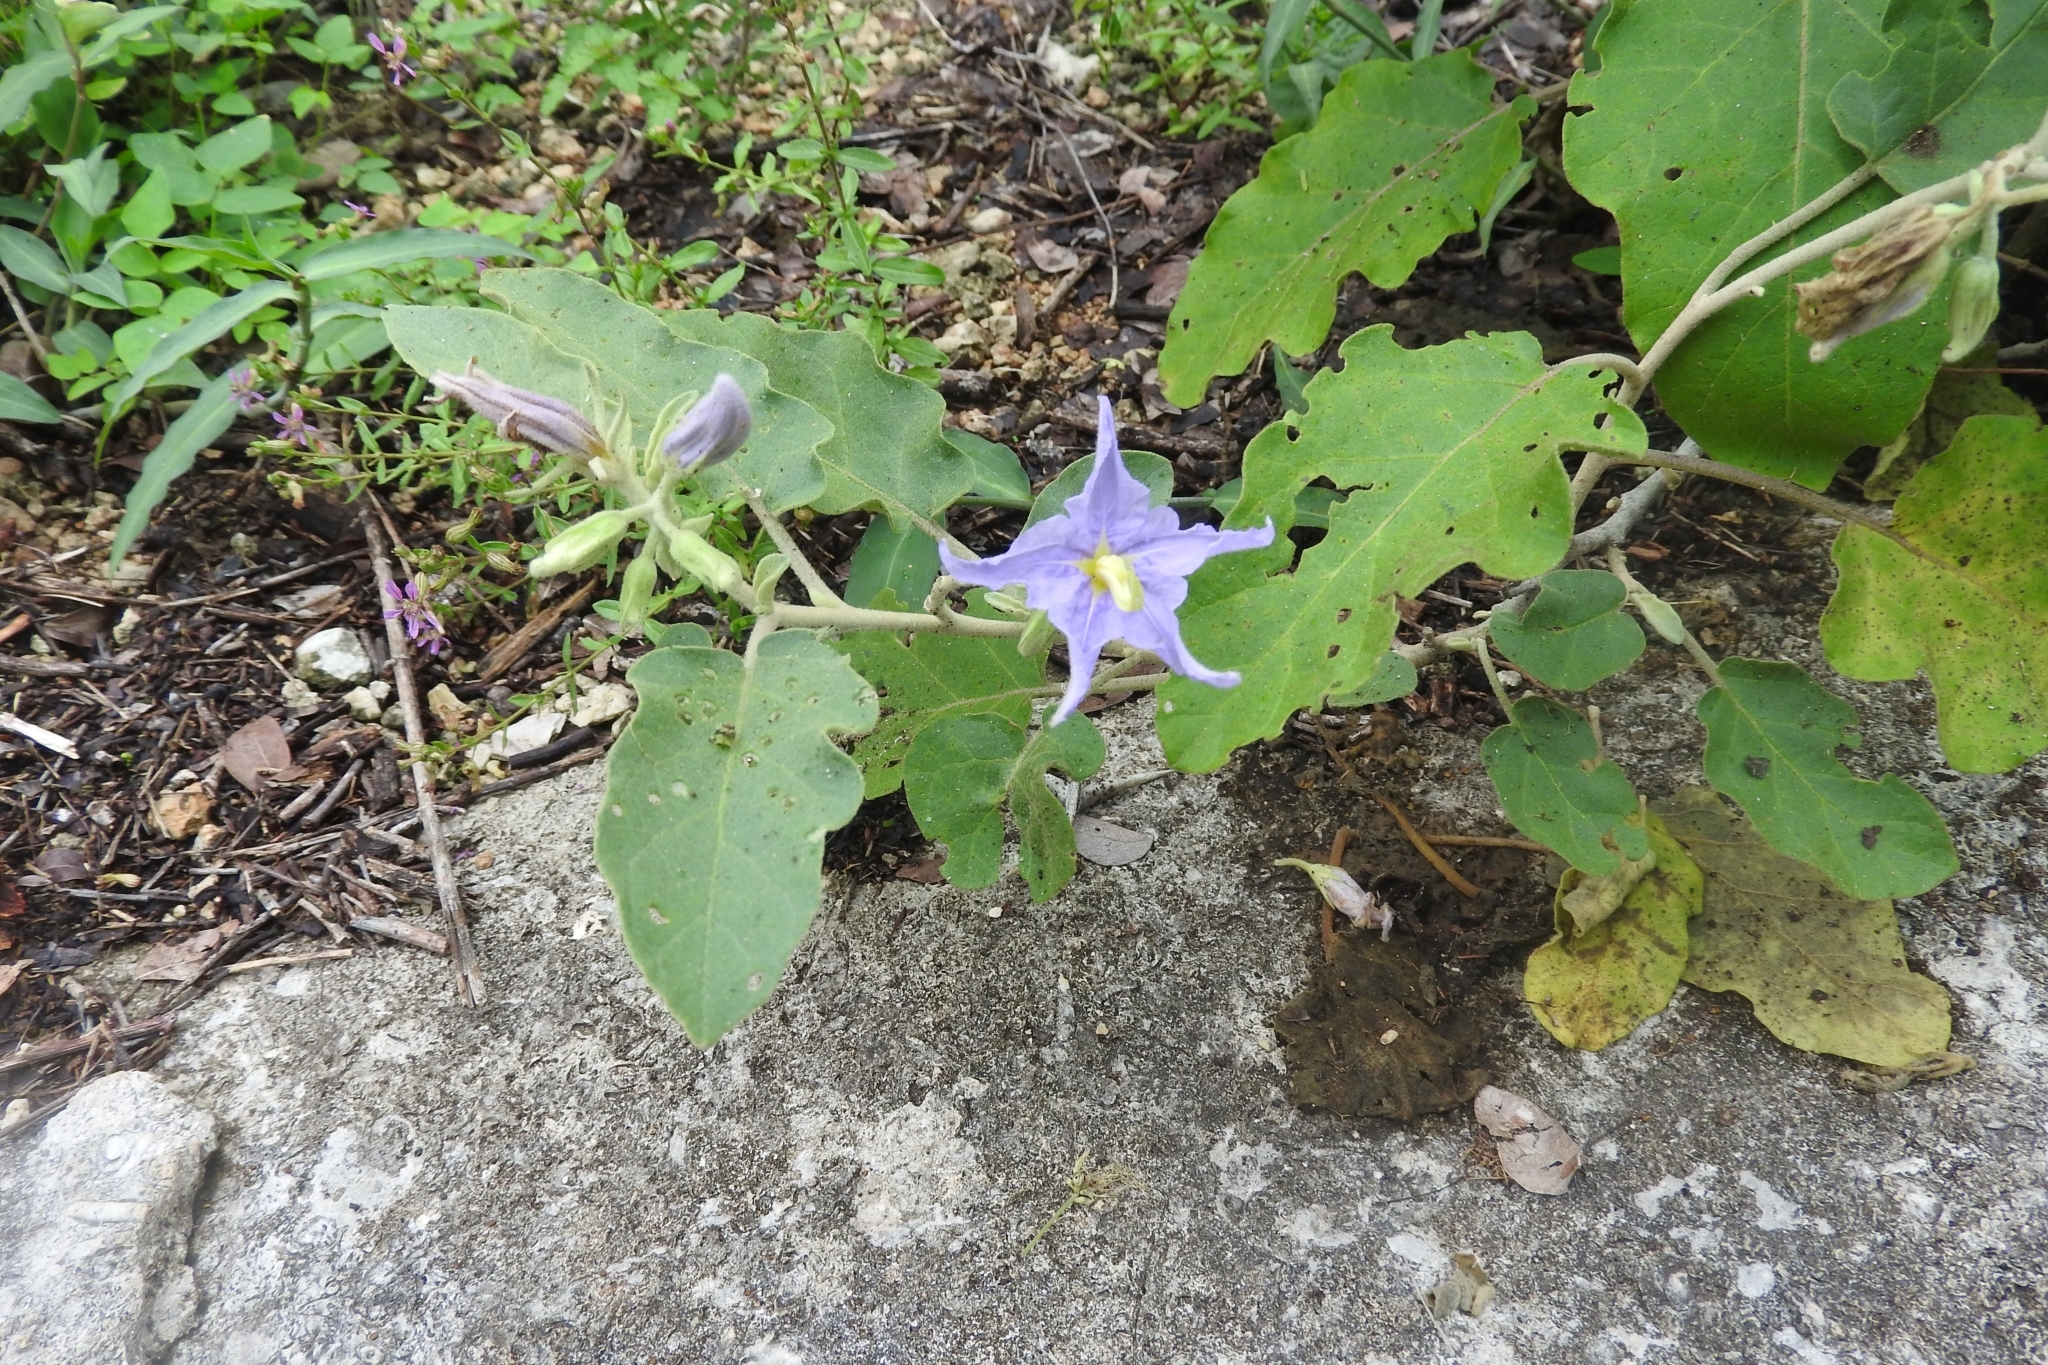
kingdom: Plantae
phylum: Tracheophyta
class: Magnoliopsida
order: Solanales
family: Solanaceae
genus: Solanum
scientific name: Solanum houstonii
